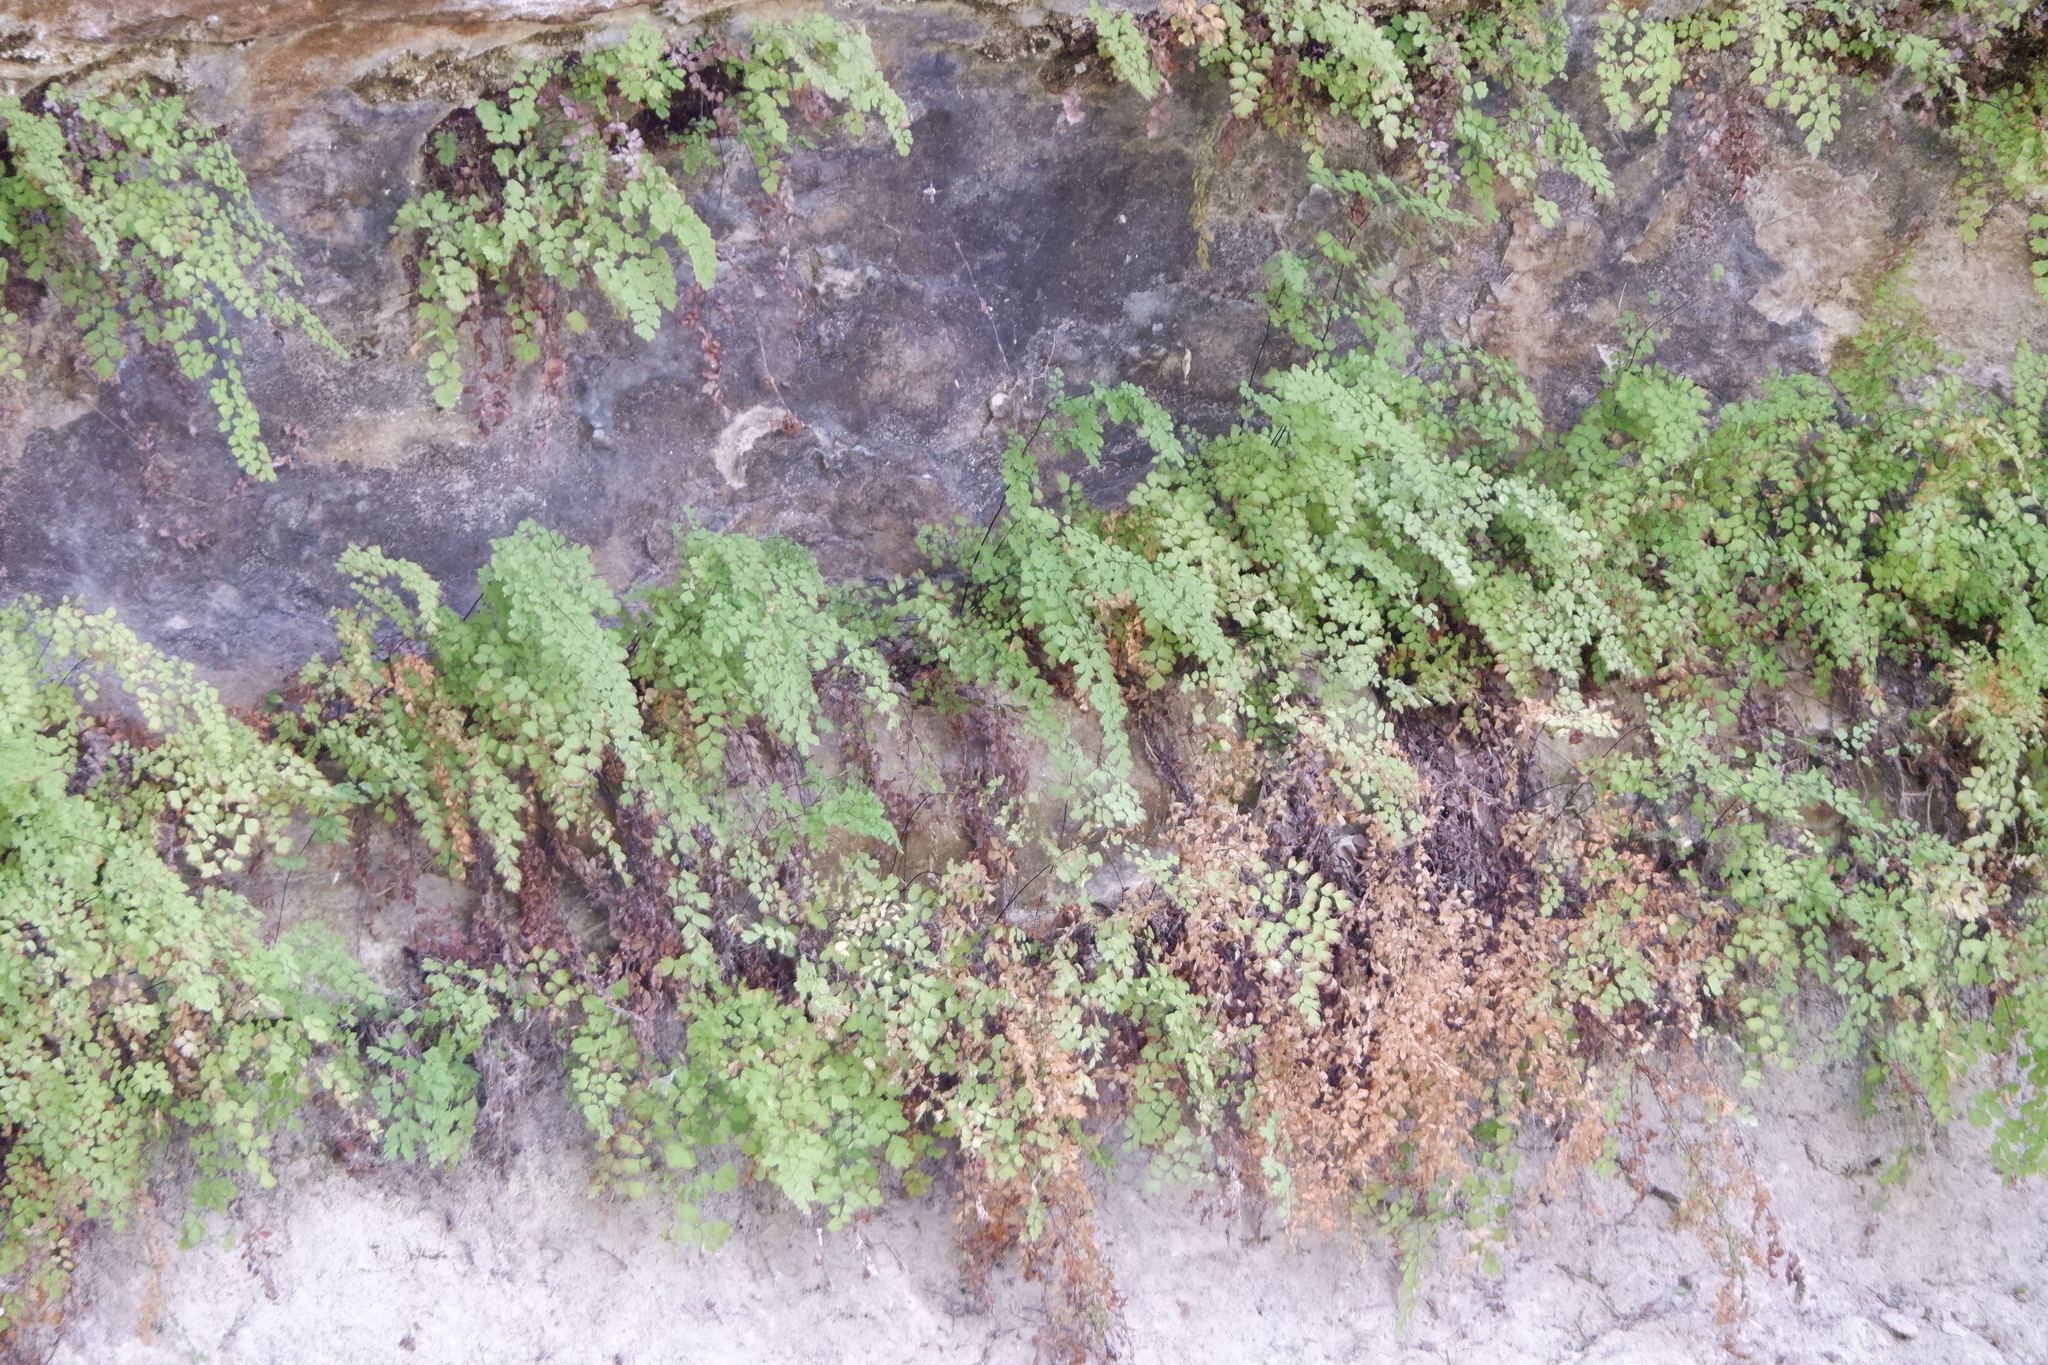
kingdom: Plantae
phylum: Tracheophyta
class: Polypodiopsida
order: Polypodiales
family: Pteridaceae
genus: Adiantum
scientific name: Adiantum capillus-veneris
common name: Maidenhair fern
